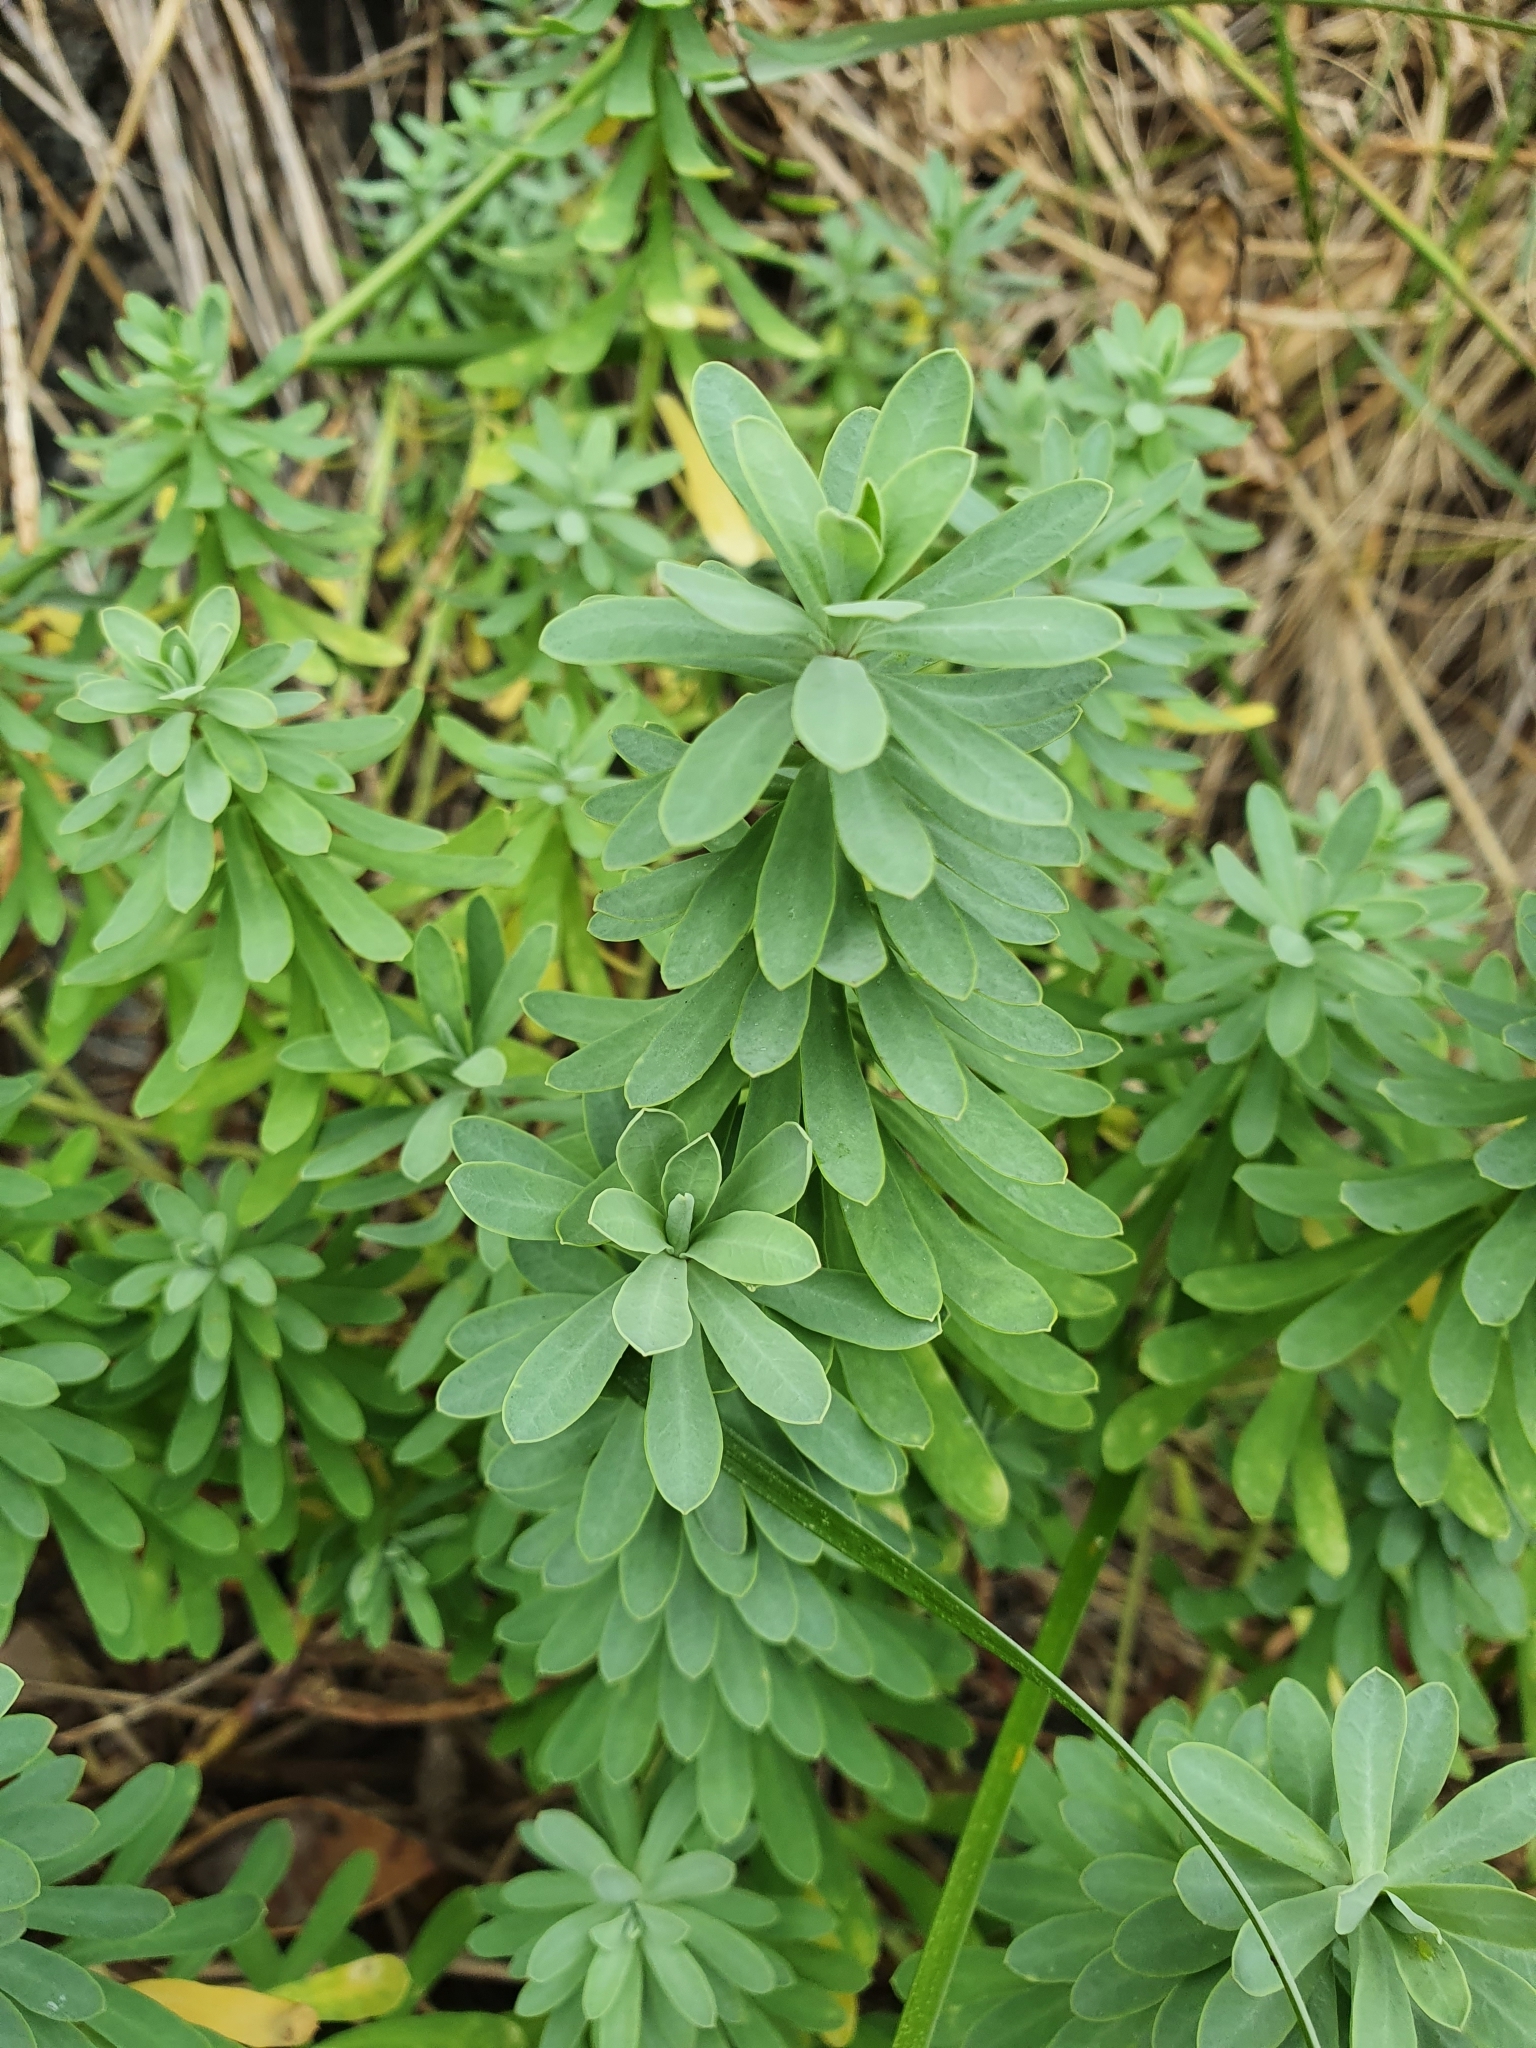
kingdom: Plantae
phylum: Tracheophyta
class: Magnoliopsida
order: Malpighiales
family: Euphorbiaceae
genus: Euphorbia
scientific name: Euphorbia azorica
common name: Erva-leitera
